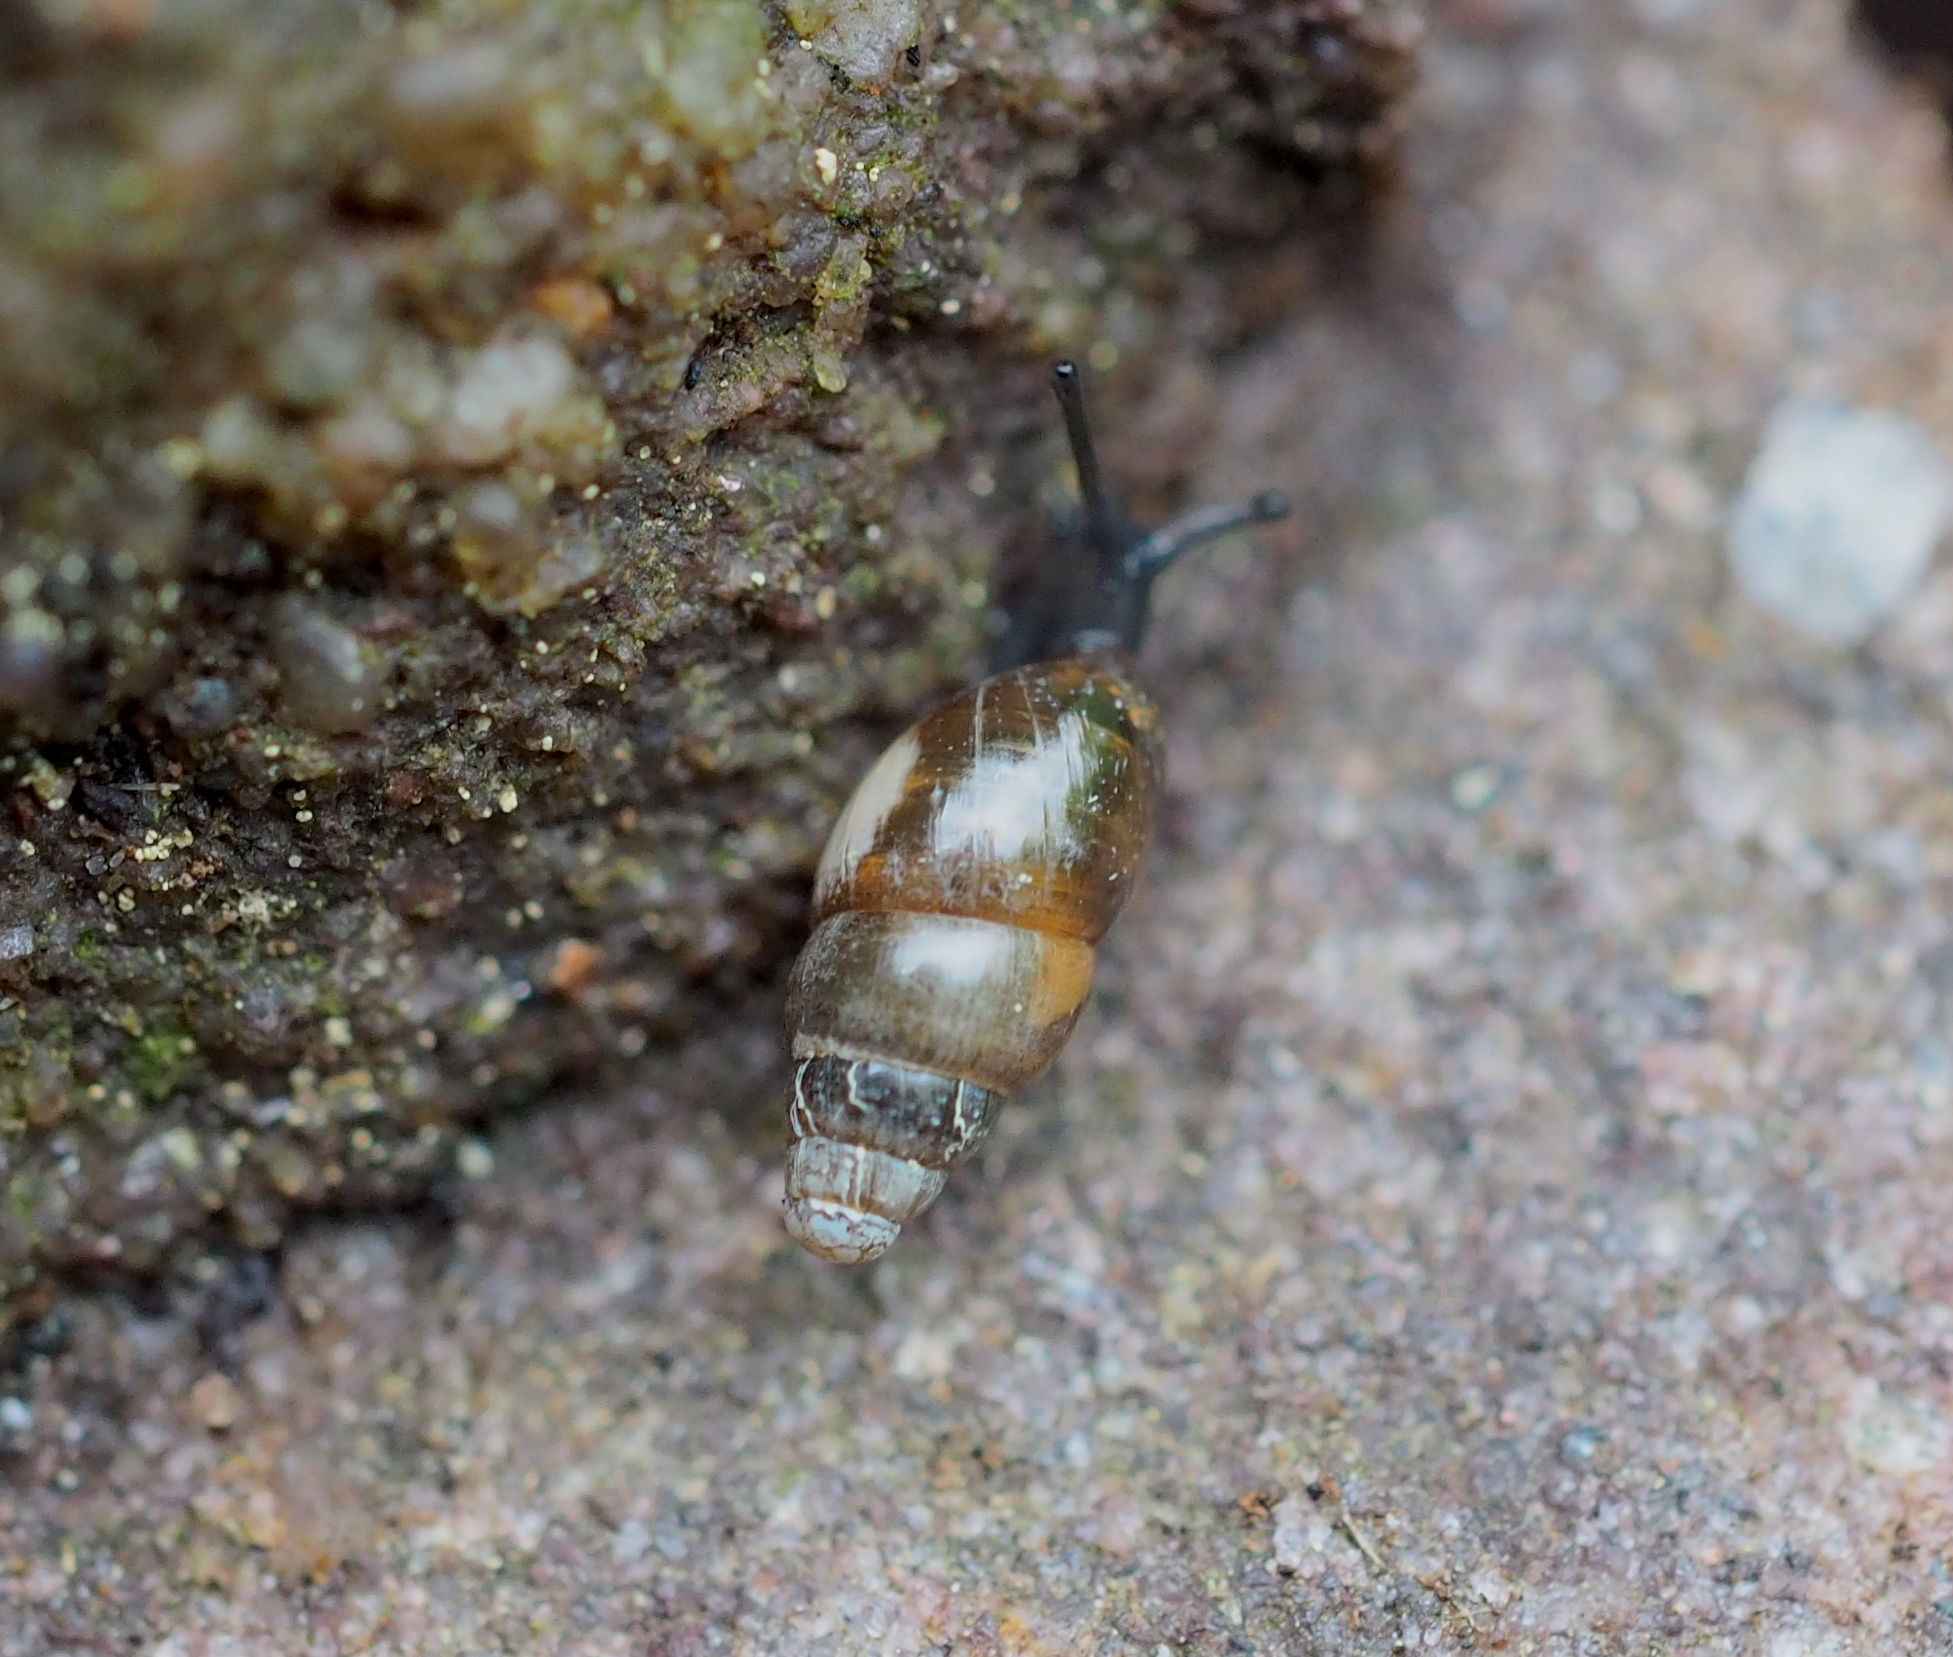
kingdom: Animalia
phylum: Mollusca
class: Gastropoda
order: Stylommatophora
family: Cochlicopidae
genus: Cochlicopa
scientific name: Cochlicopa lubrica
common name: Glossy pillar snail
